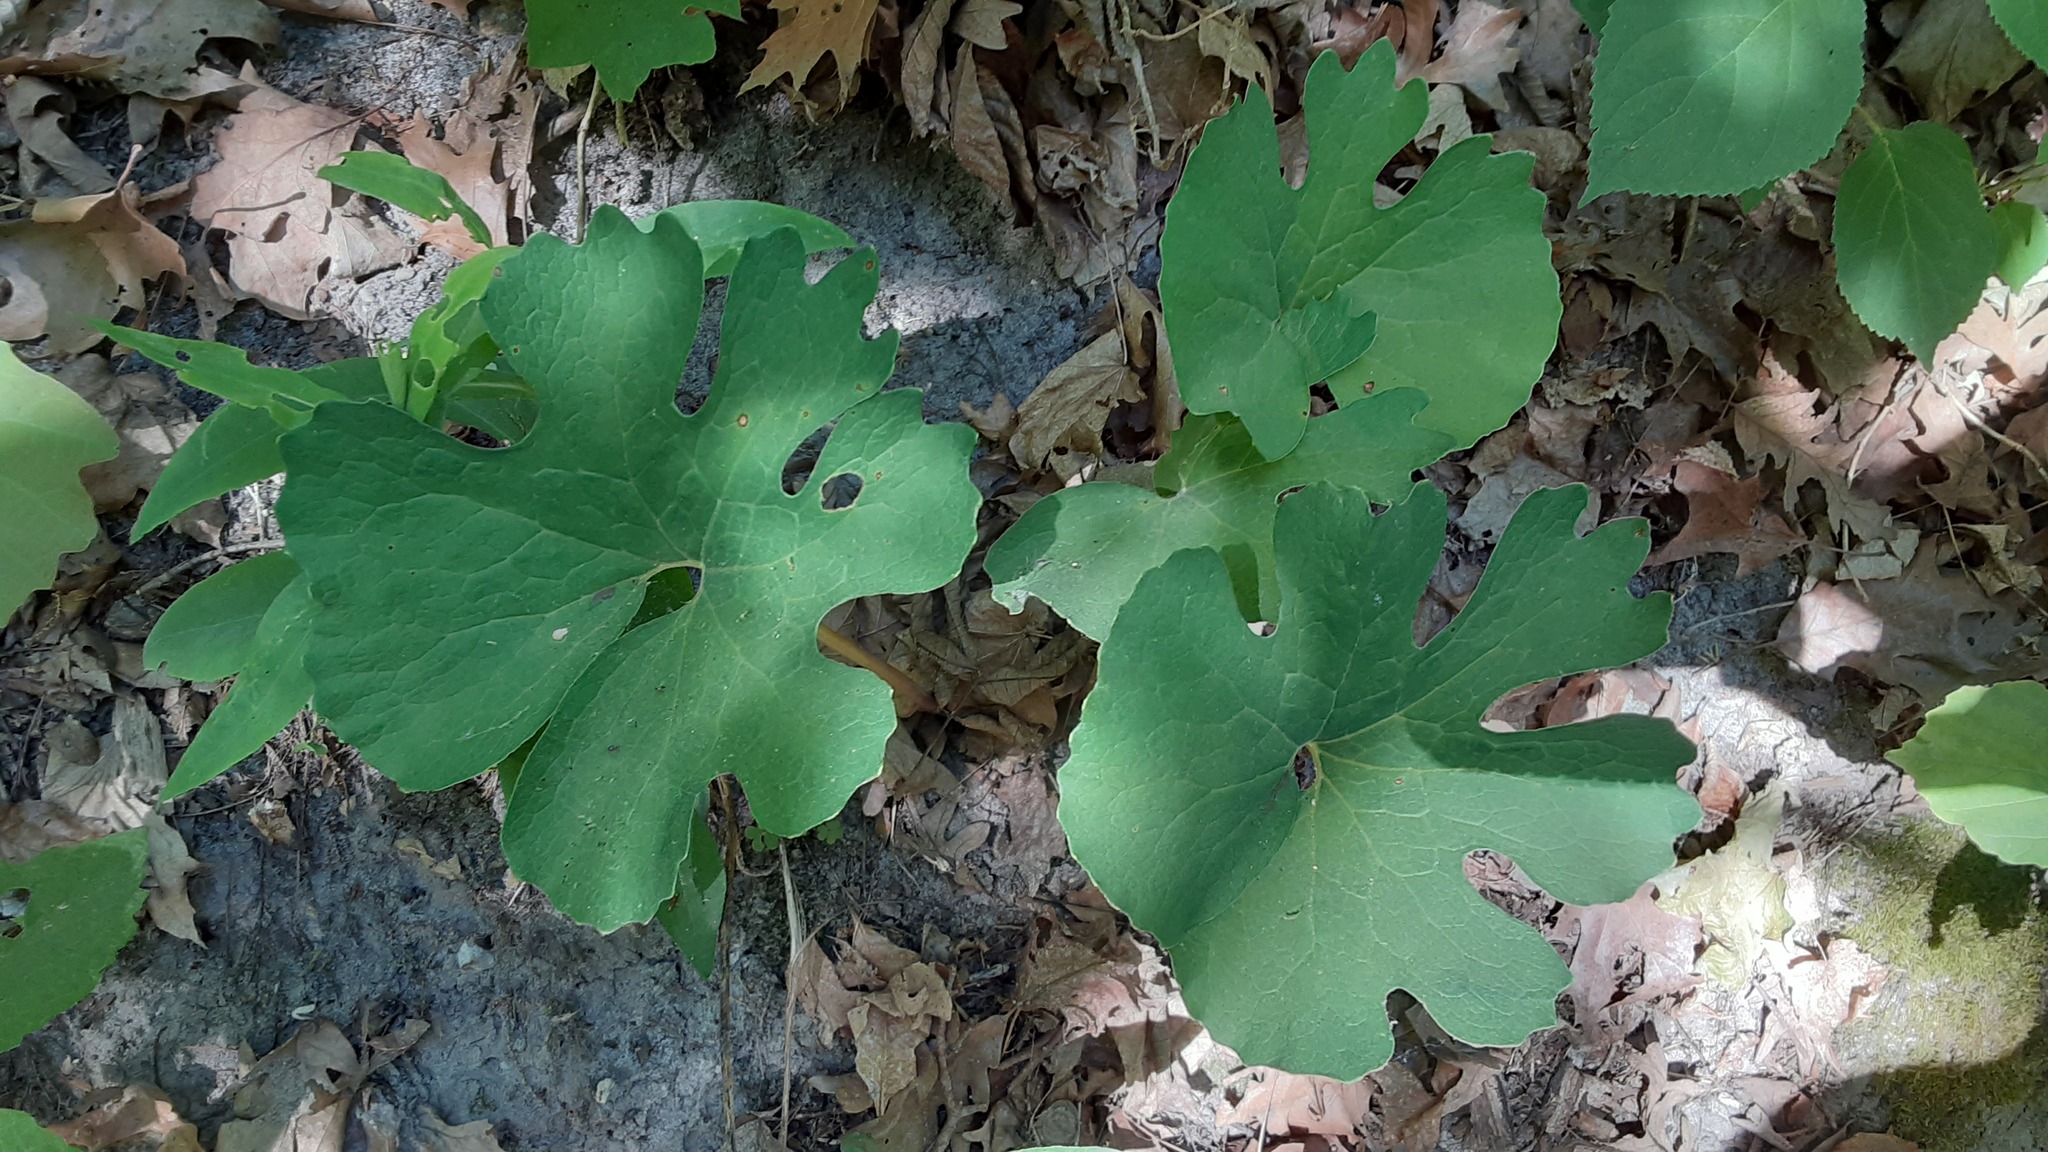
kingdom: Plantae
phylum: Tracheophyta
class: Magnoliopsida
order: Ranunculales
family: Papaveraceae
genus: Sanguinaria
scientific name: Sanguinaria canadensis
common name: Bloodroot
